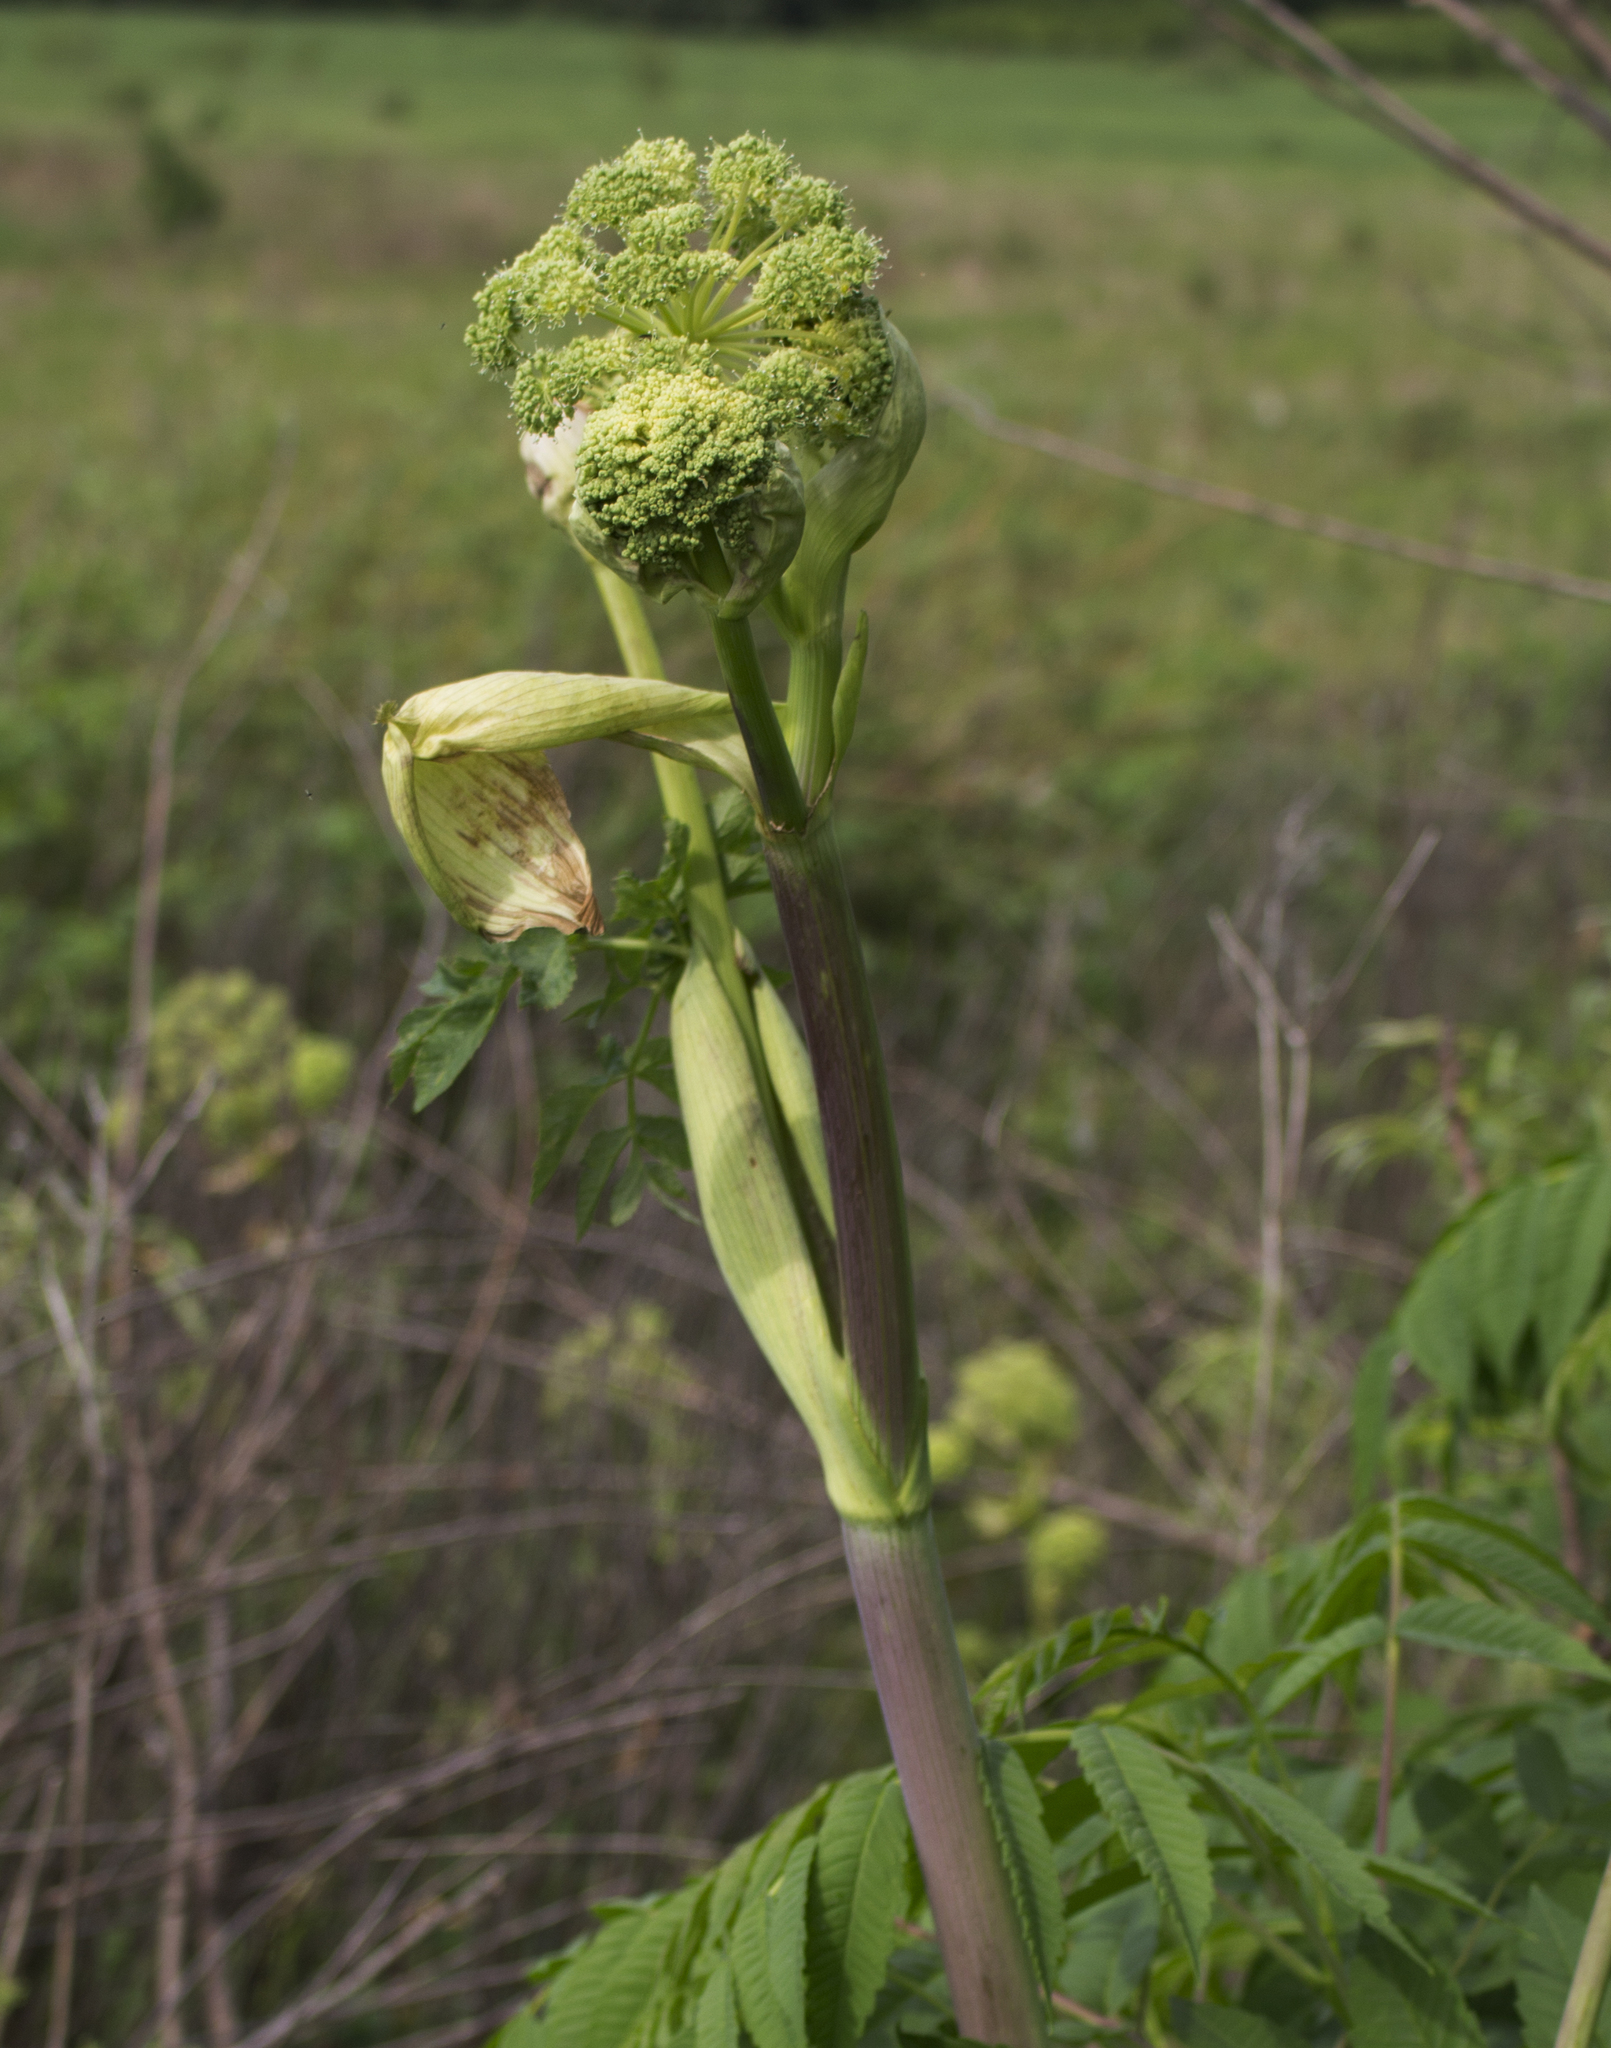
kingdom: Plantae
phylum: Tracheophyta
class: Magnoliopsida
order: Apiales
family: Apiaceae
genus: Angelica
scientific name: Angelica atropurpurea
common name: Great angelica
